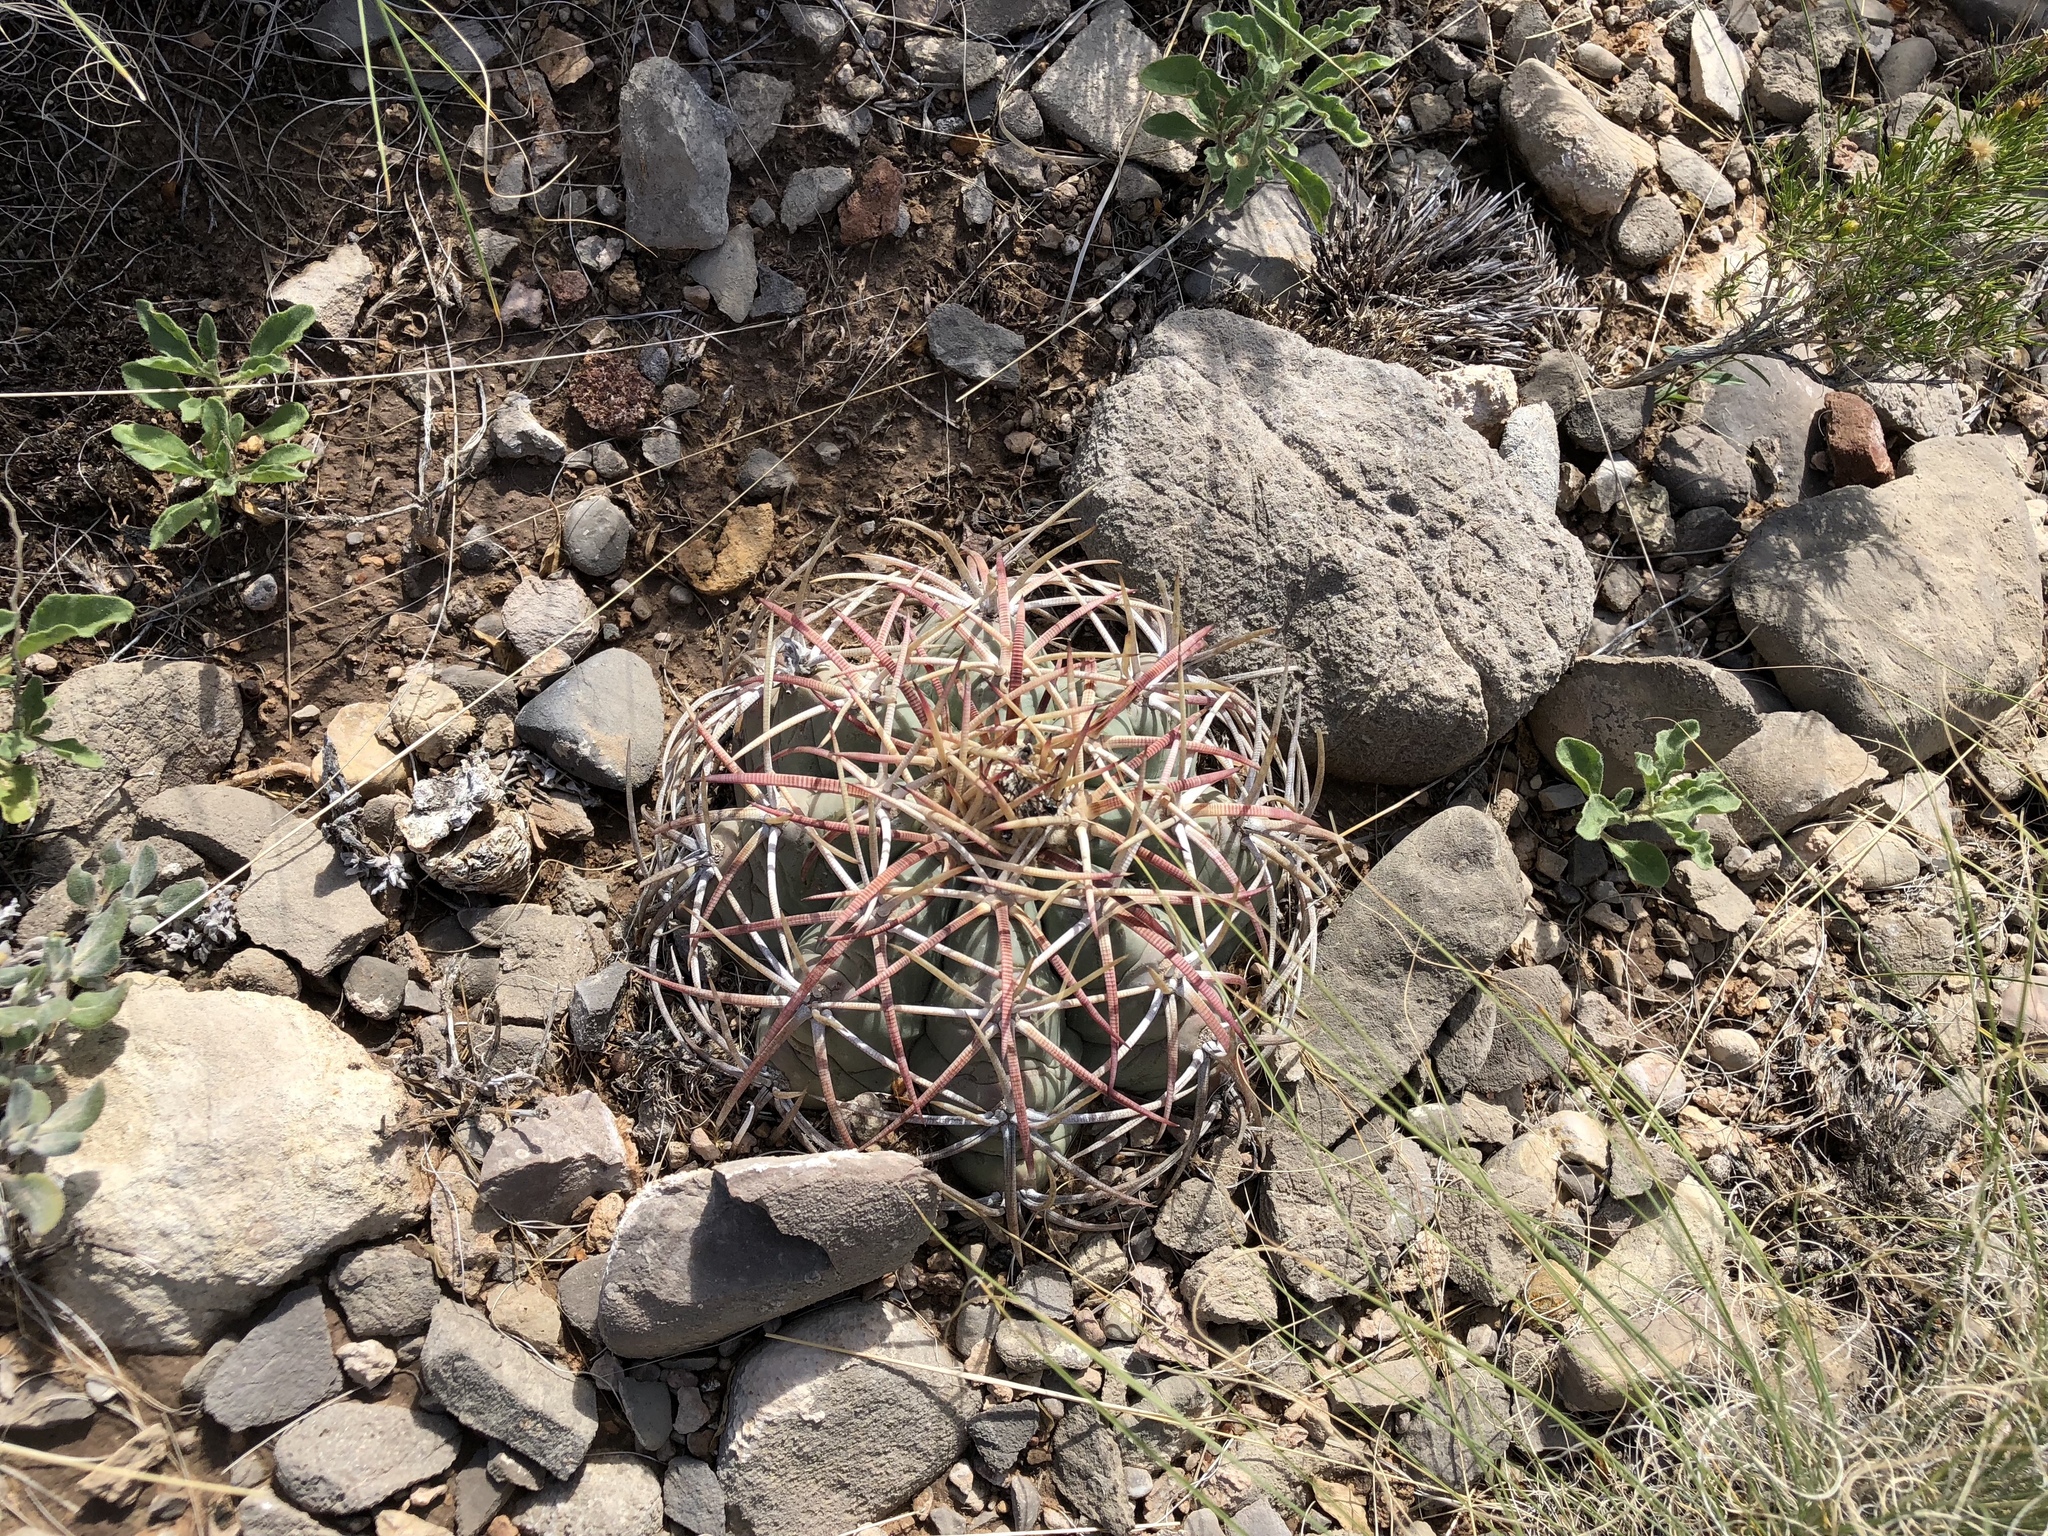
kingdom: Plantae
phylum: Tracheophyta
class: Magnoliopsida
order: Caryophyllales
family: Cactaceae
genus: Echinocactus
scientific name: Echinocactus horizonthalonius
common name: Devilshead
